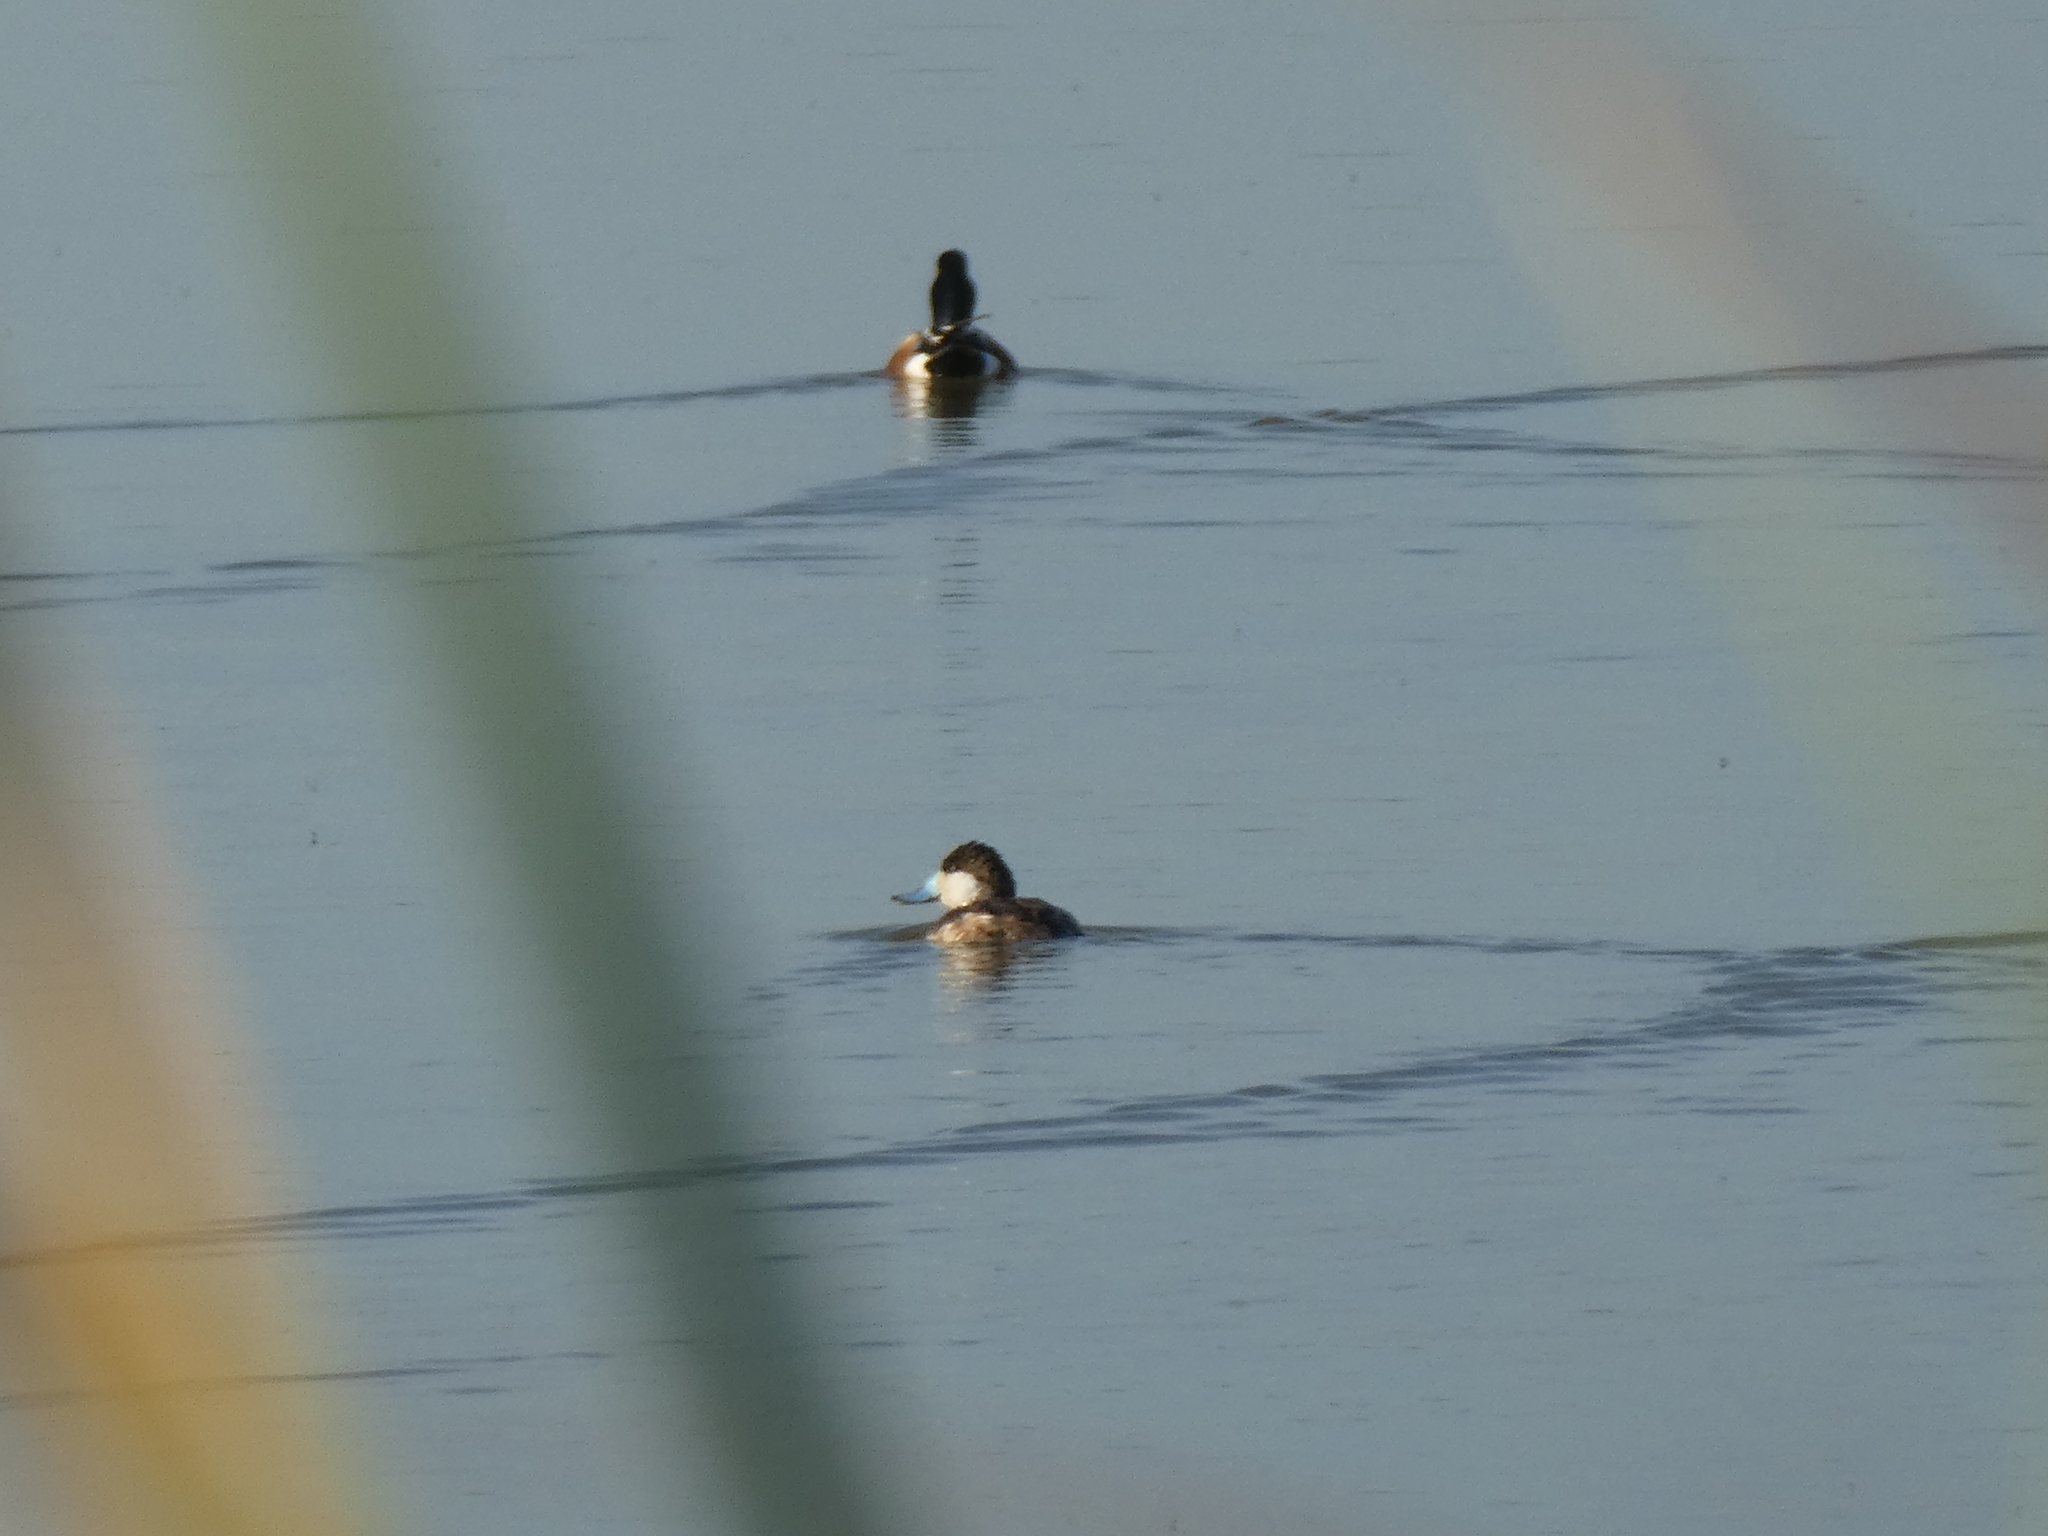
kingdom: Animalia
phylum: Chordata
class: Aves
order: Anseriformes
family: Anatidae
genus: Oxyura
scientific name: Oxyura jamaicensis
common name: Ruddy duck
